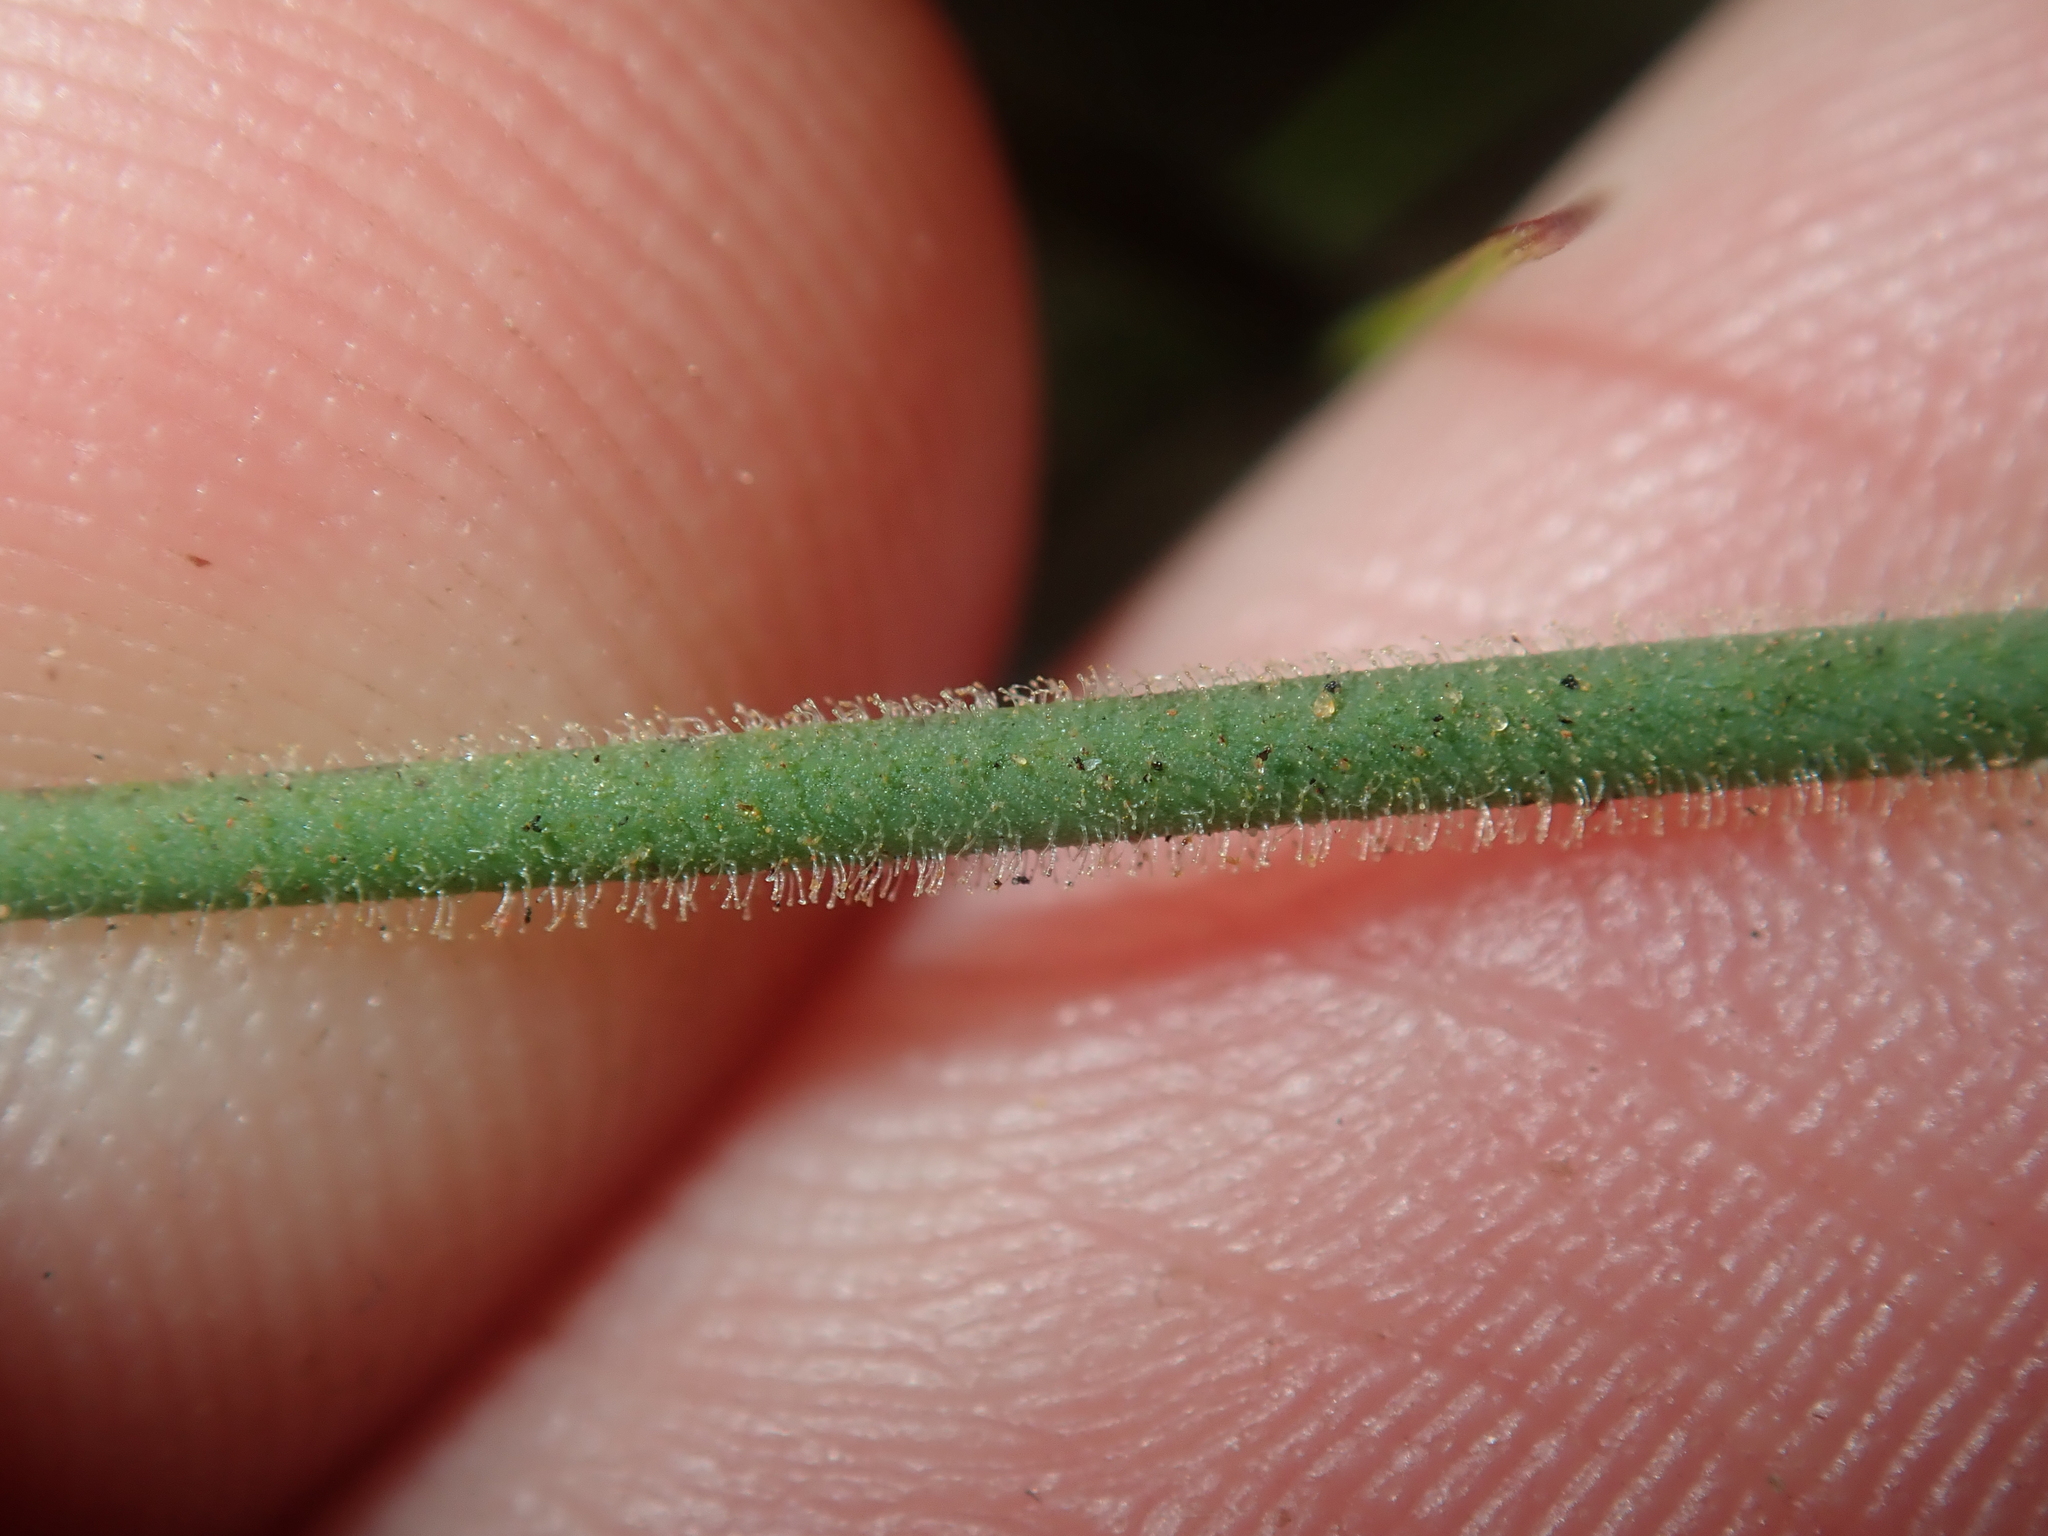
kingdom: Plantae
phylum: Tracheophyta
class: Magnoliopsida
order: Caryophyllales
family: Caryophyllaceae
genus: Petrorhagia
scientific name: Petrorhagia dubia
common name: Hairypink
